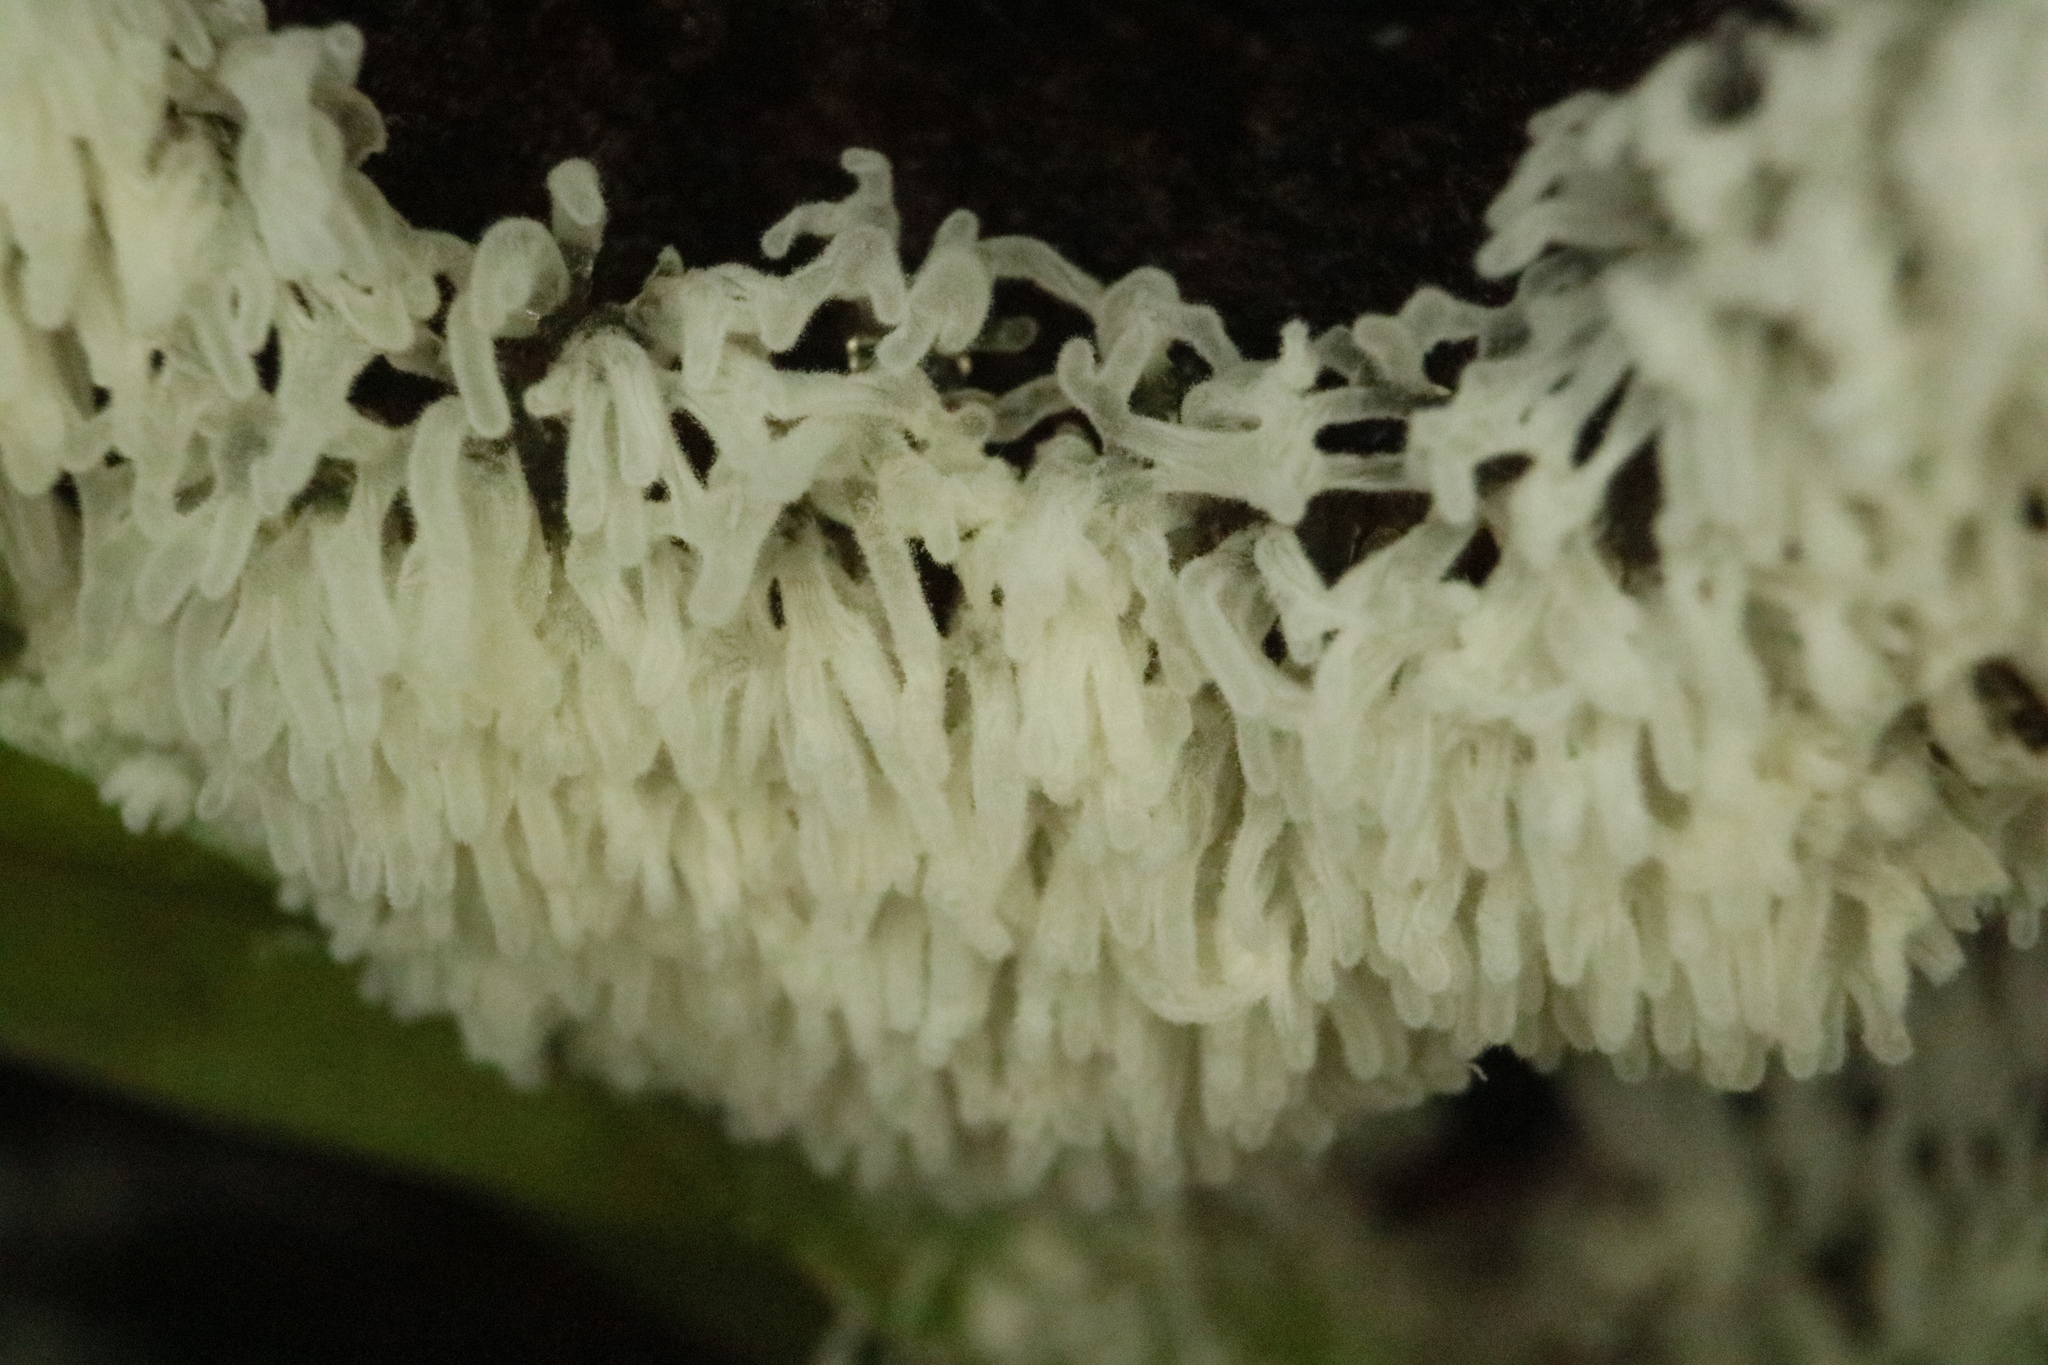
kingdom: Protozoa
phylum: Mycetozoa
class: Protosteliomycetes
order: Ceratiomyxales
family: Ceratiomyxaceae
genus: Ceratiomyxa
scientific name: Ceratiomyxa fruticulosa
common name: Honeycomb coral slime mold
